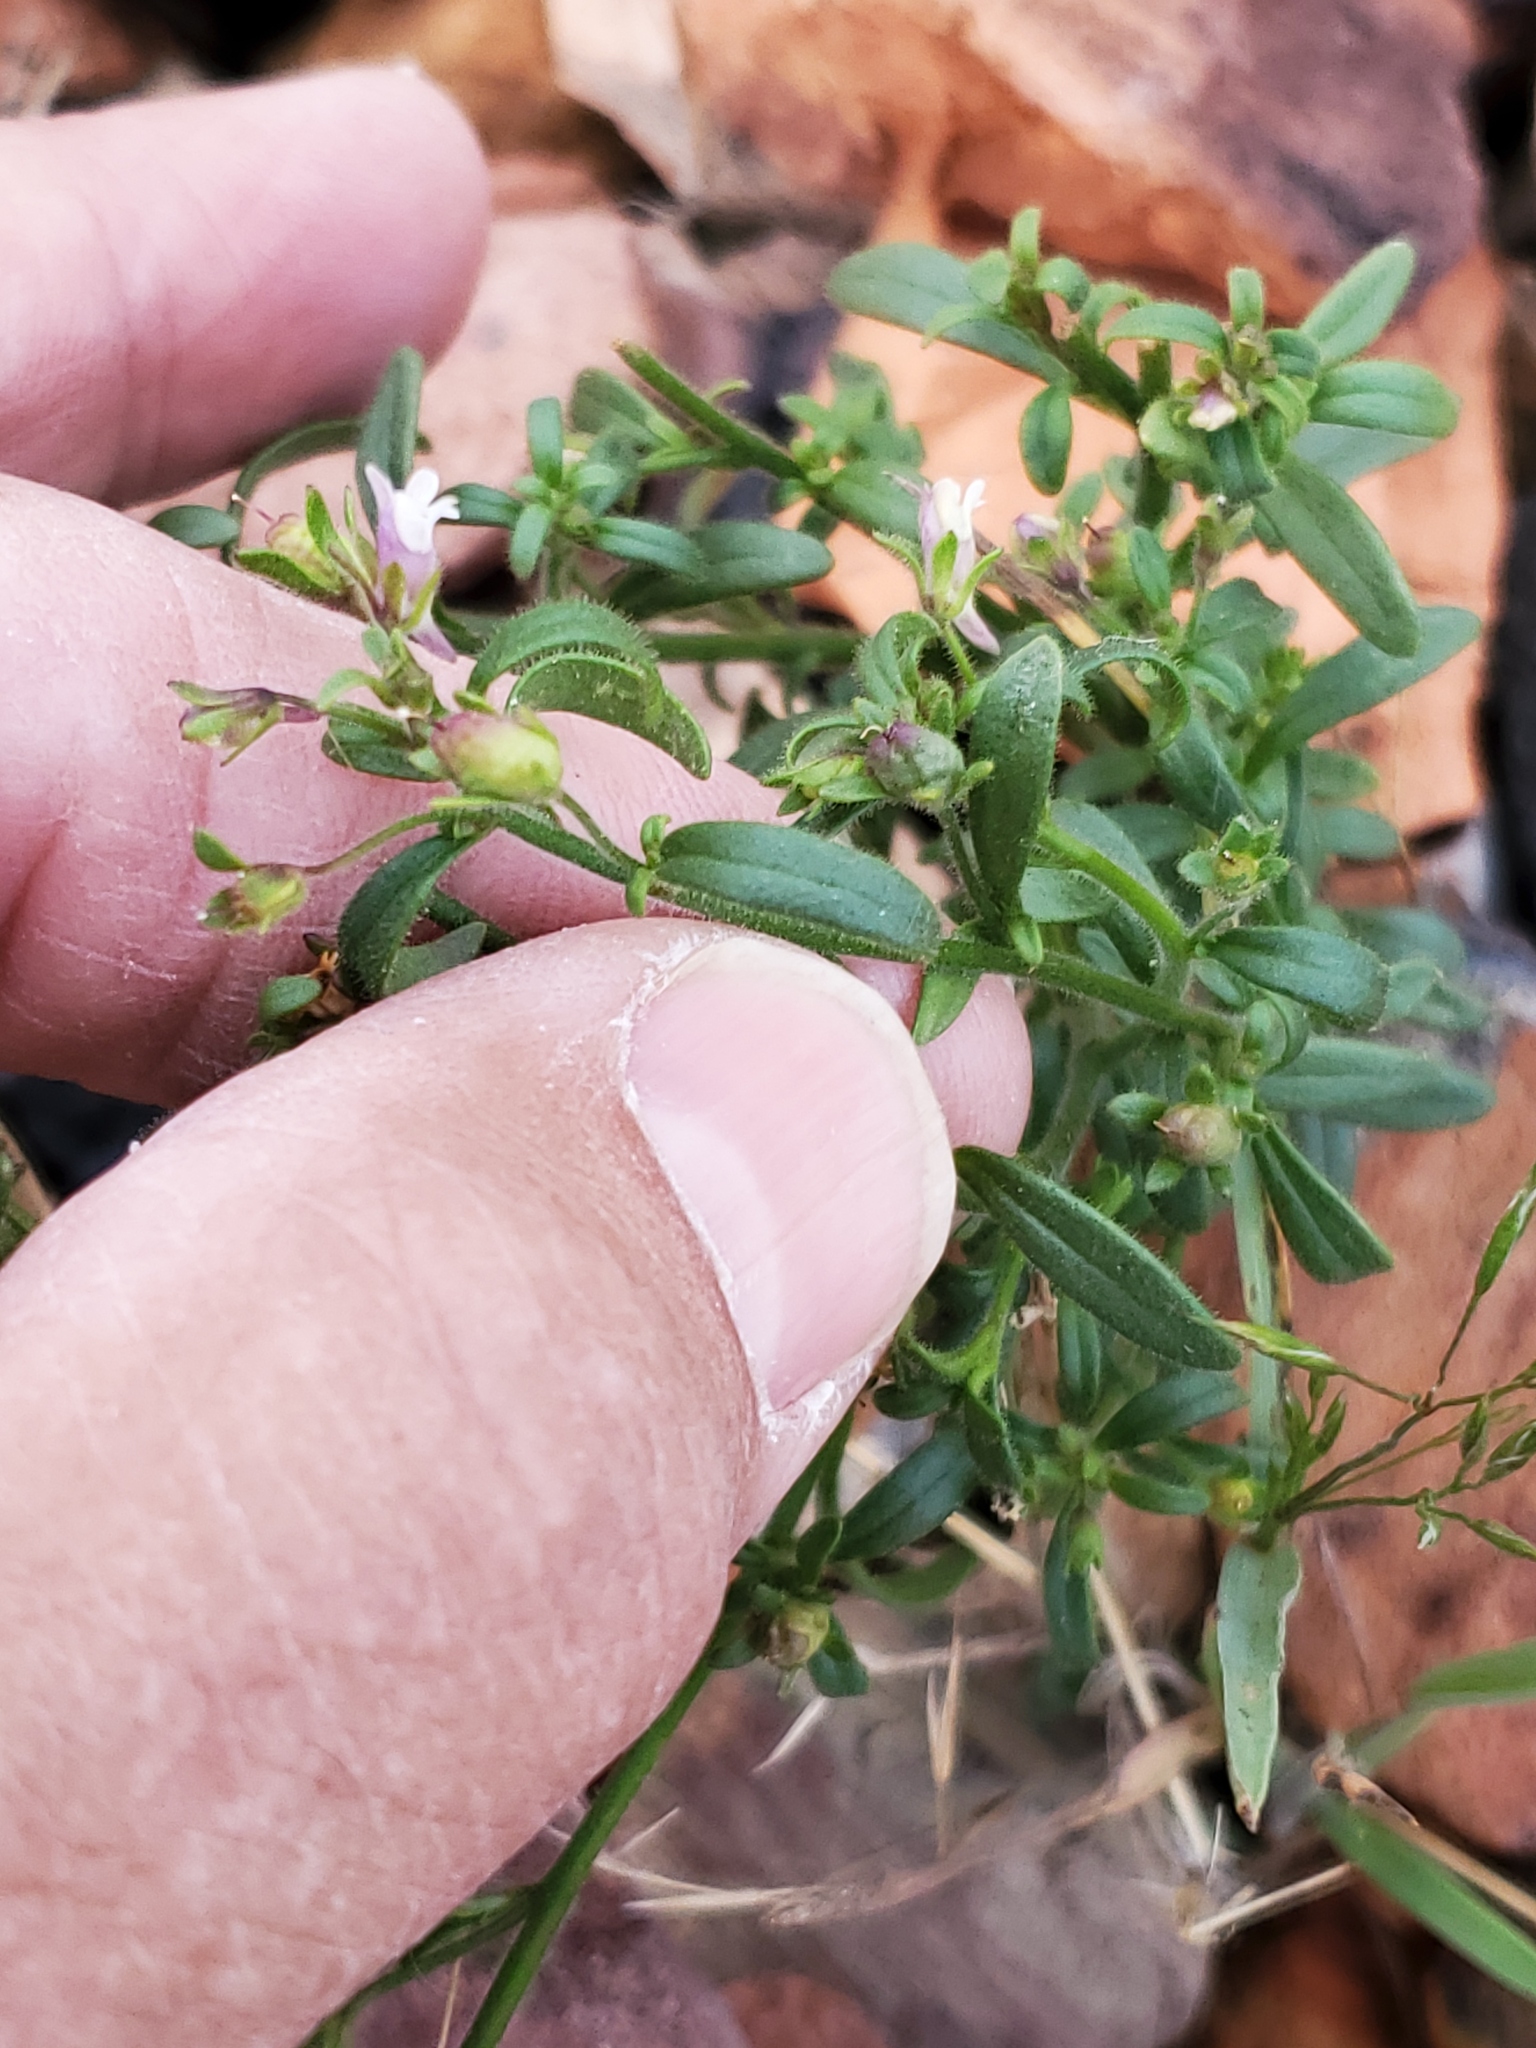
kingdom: Plantae
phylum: Tracheophyta
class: Magnoliopsida
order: Lamiales
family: Plantaginaceae
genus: Chaenorhinum
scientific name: Chaenorhinum minus
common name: Dwarf snapdragon
